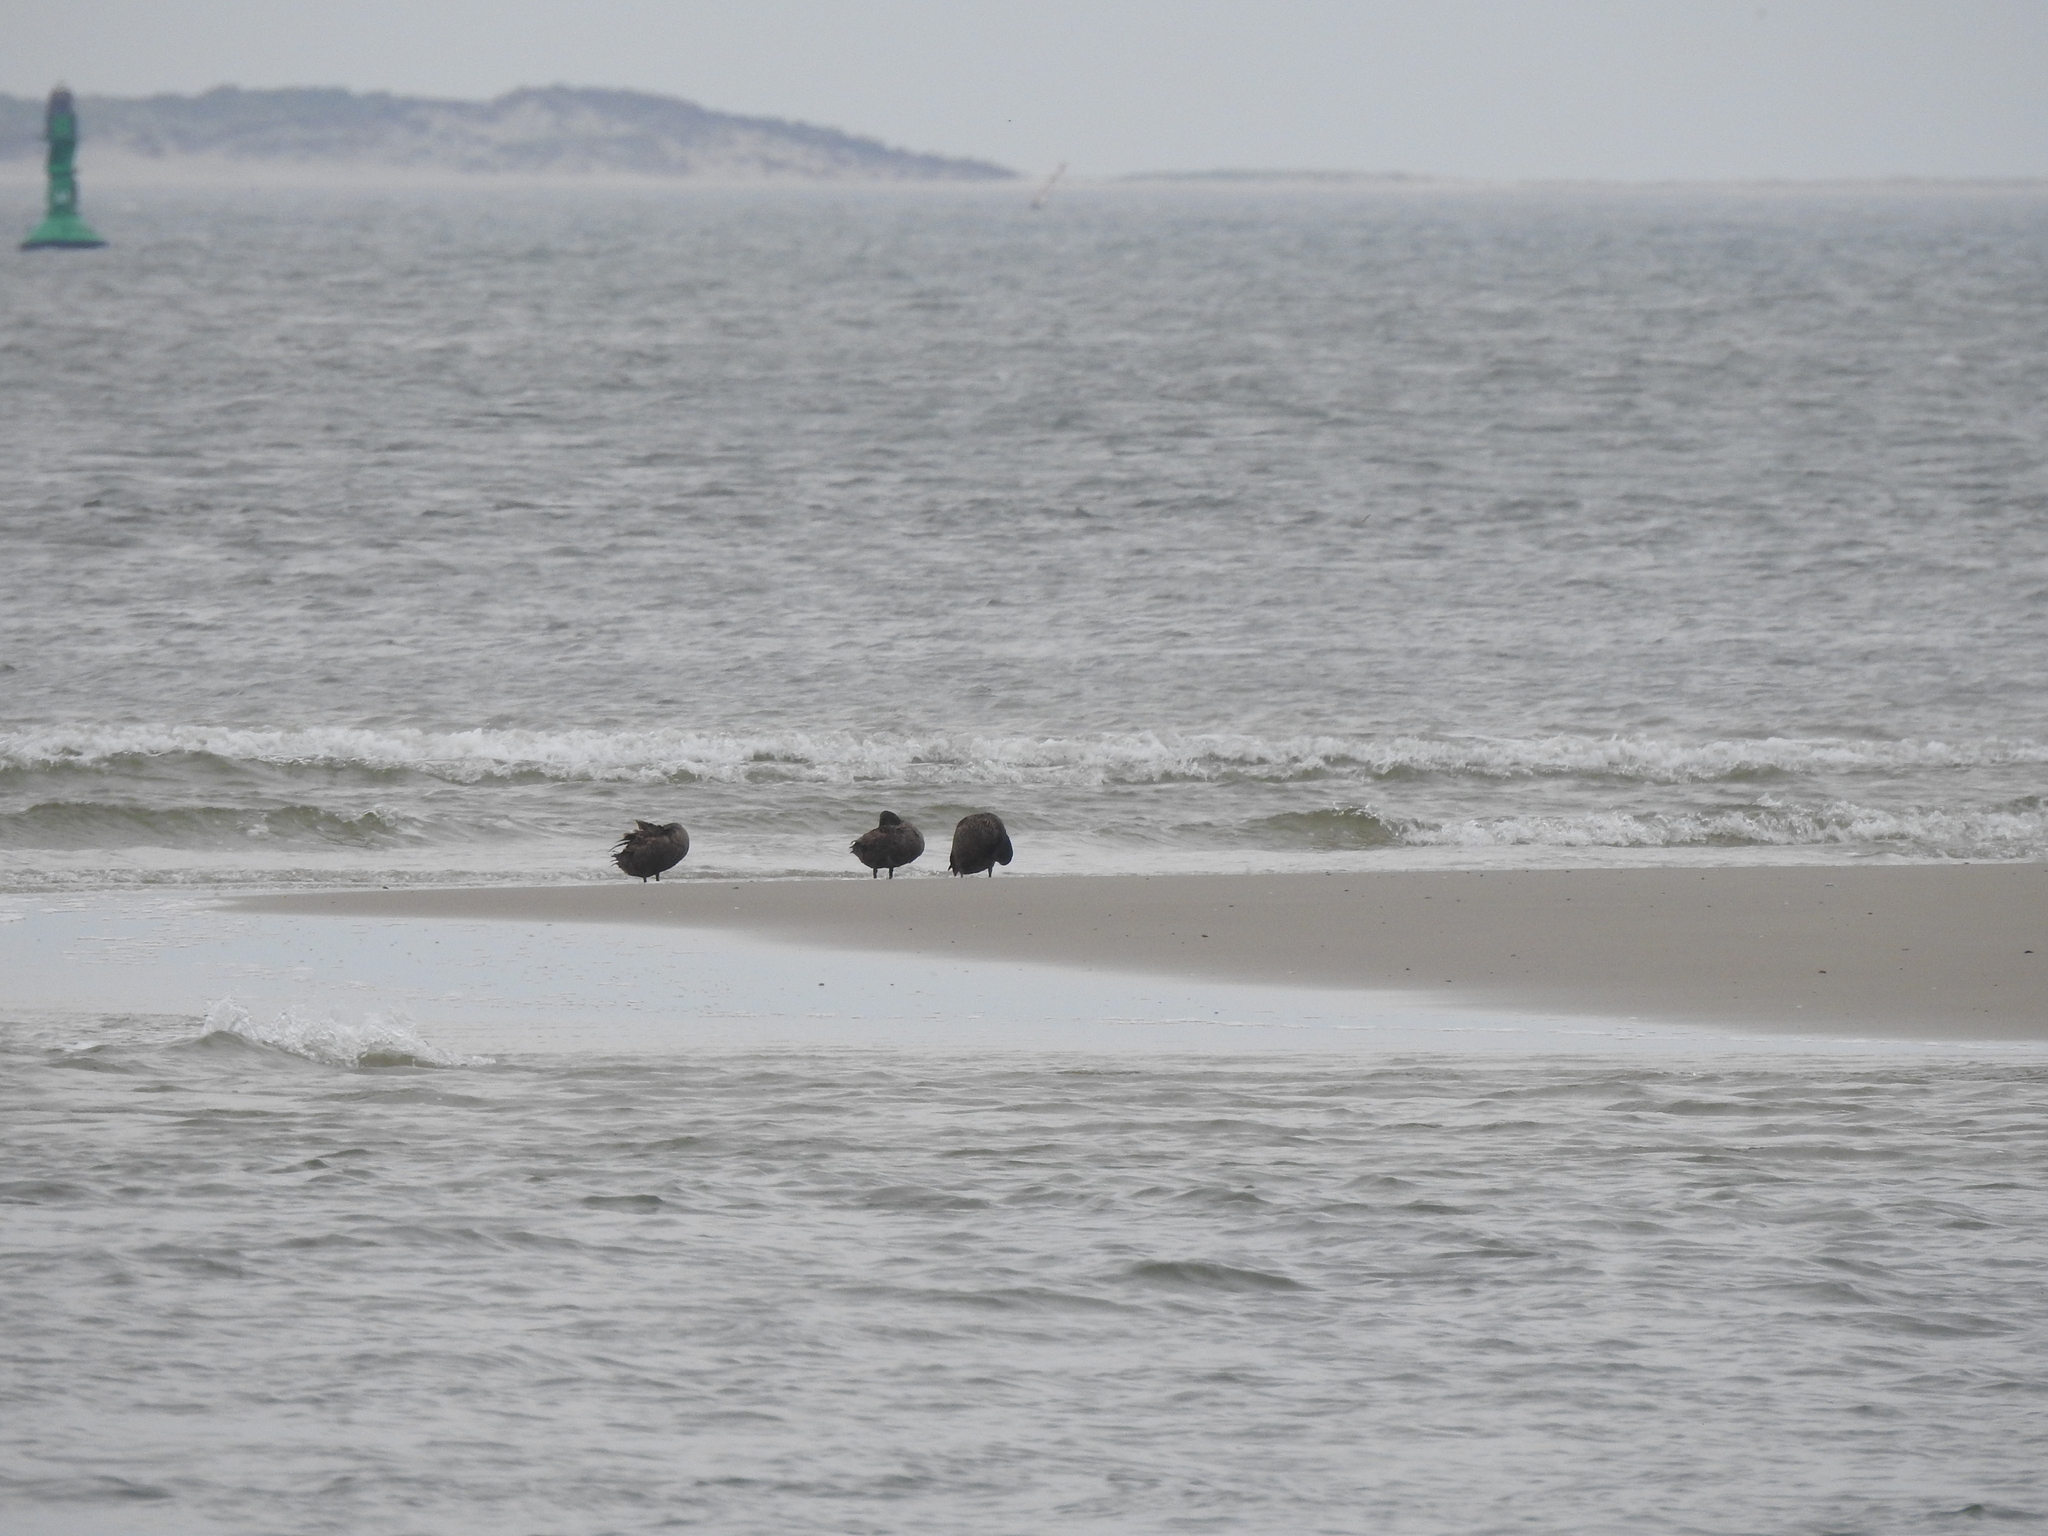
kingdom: Animalia
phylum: Chordata
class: Aves
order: Anseriformes
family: Anatidae
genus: Somateria
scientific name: Somateria mollissima
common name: Common eider
